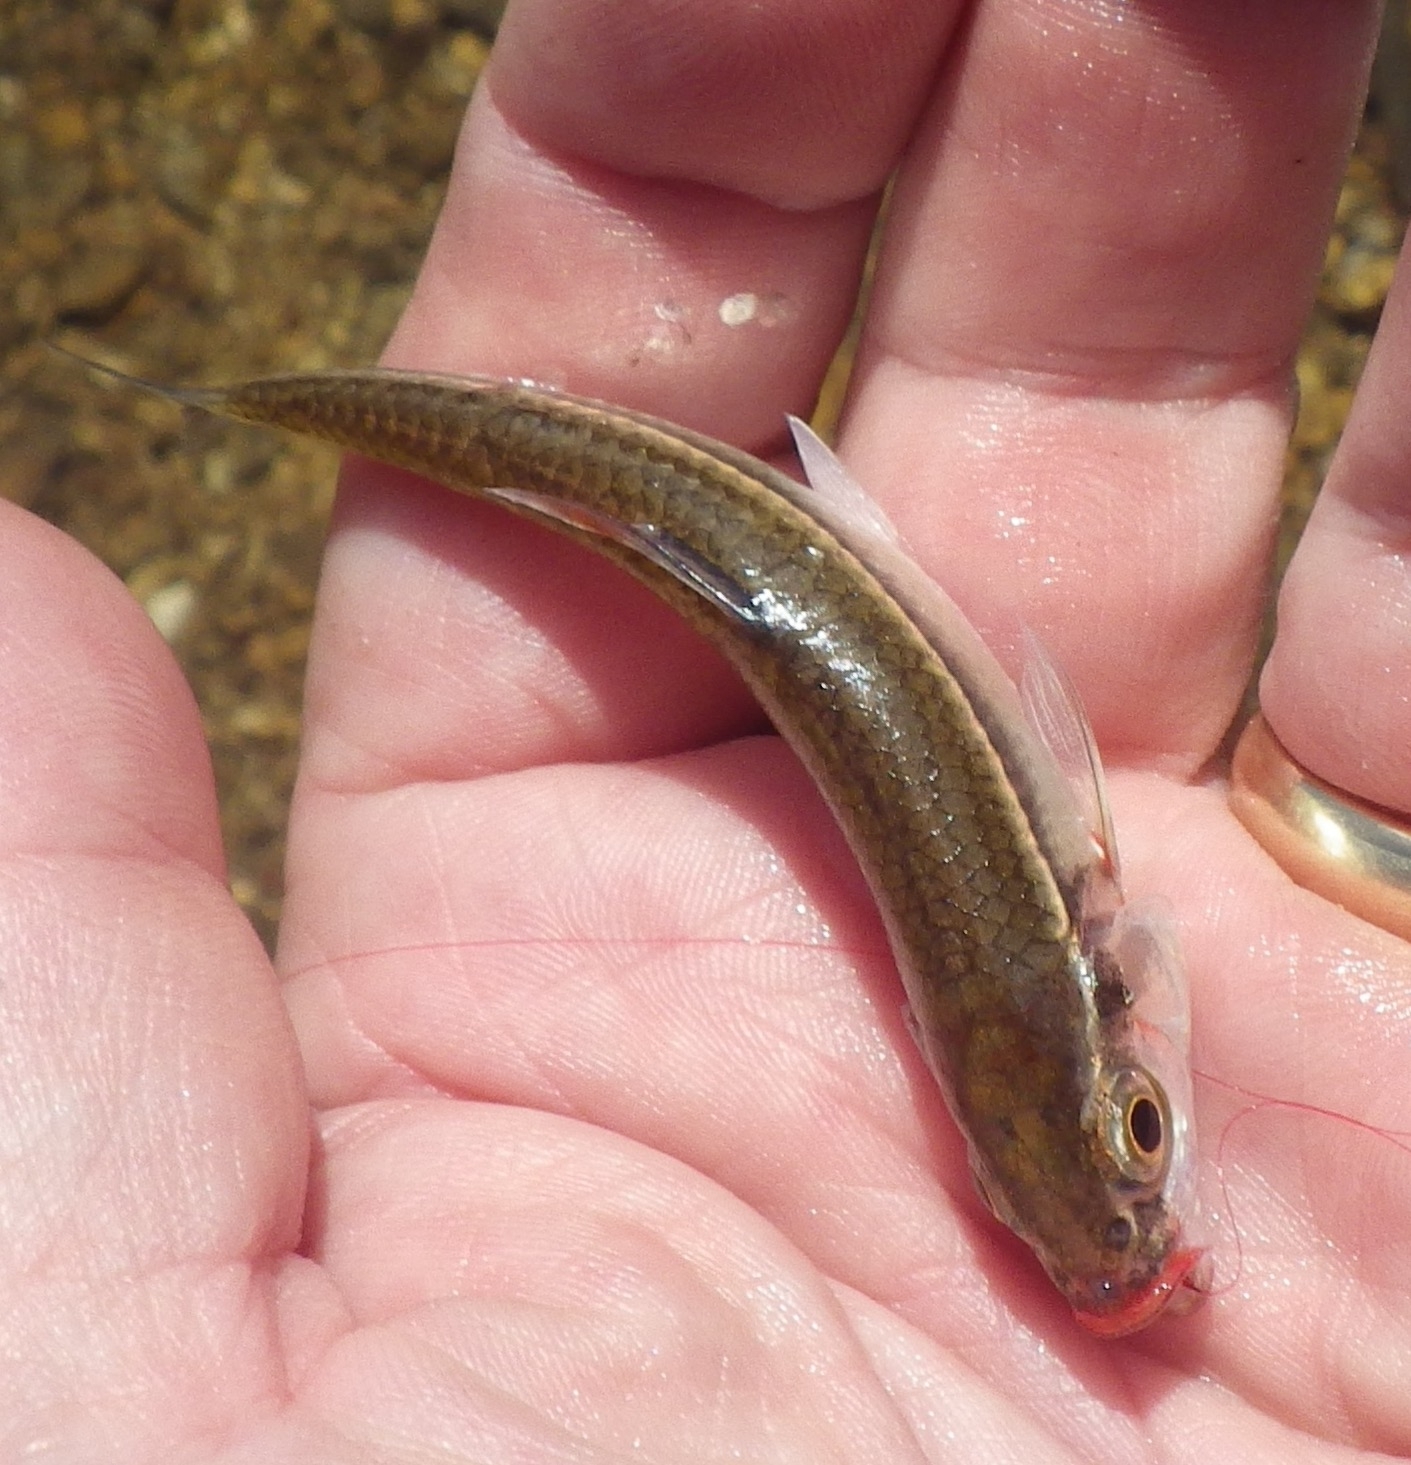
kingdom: Animalia
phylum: Chordata
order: Cypriniformes
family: Cyprinidae
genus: Luxilus
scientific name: Luxilus zonatus
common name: Bleeding shiner
